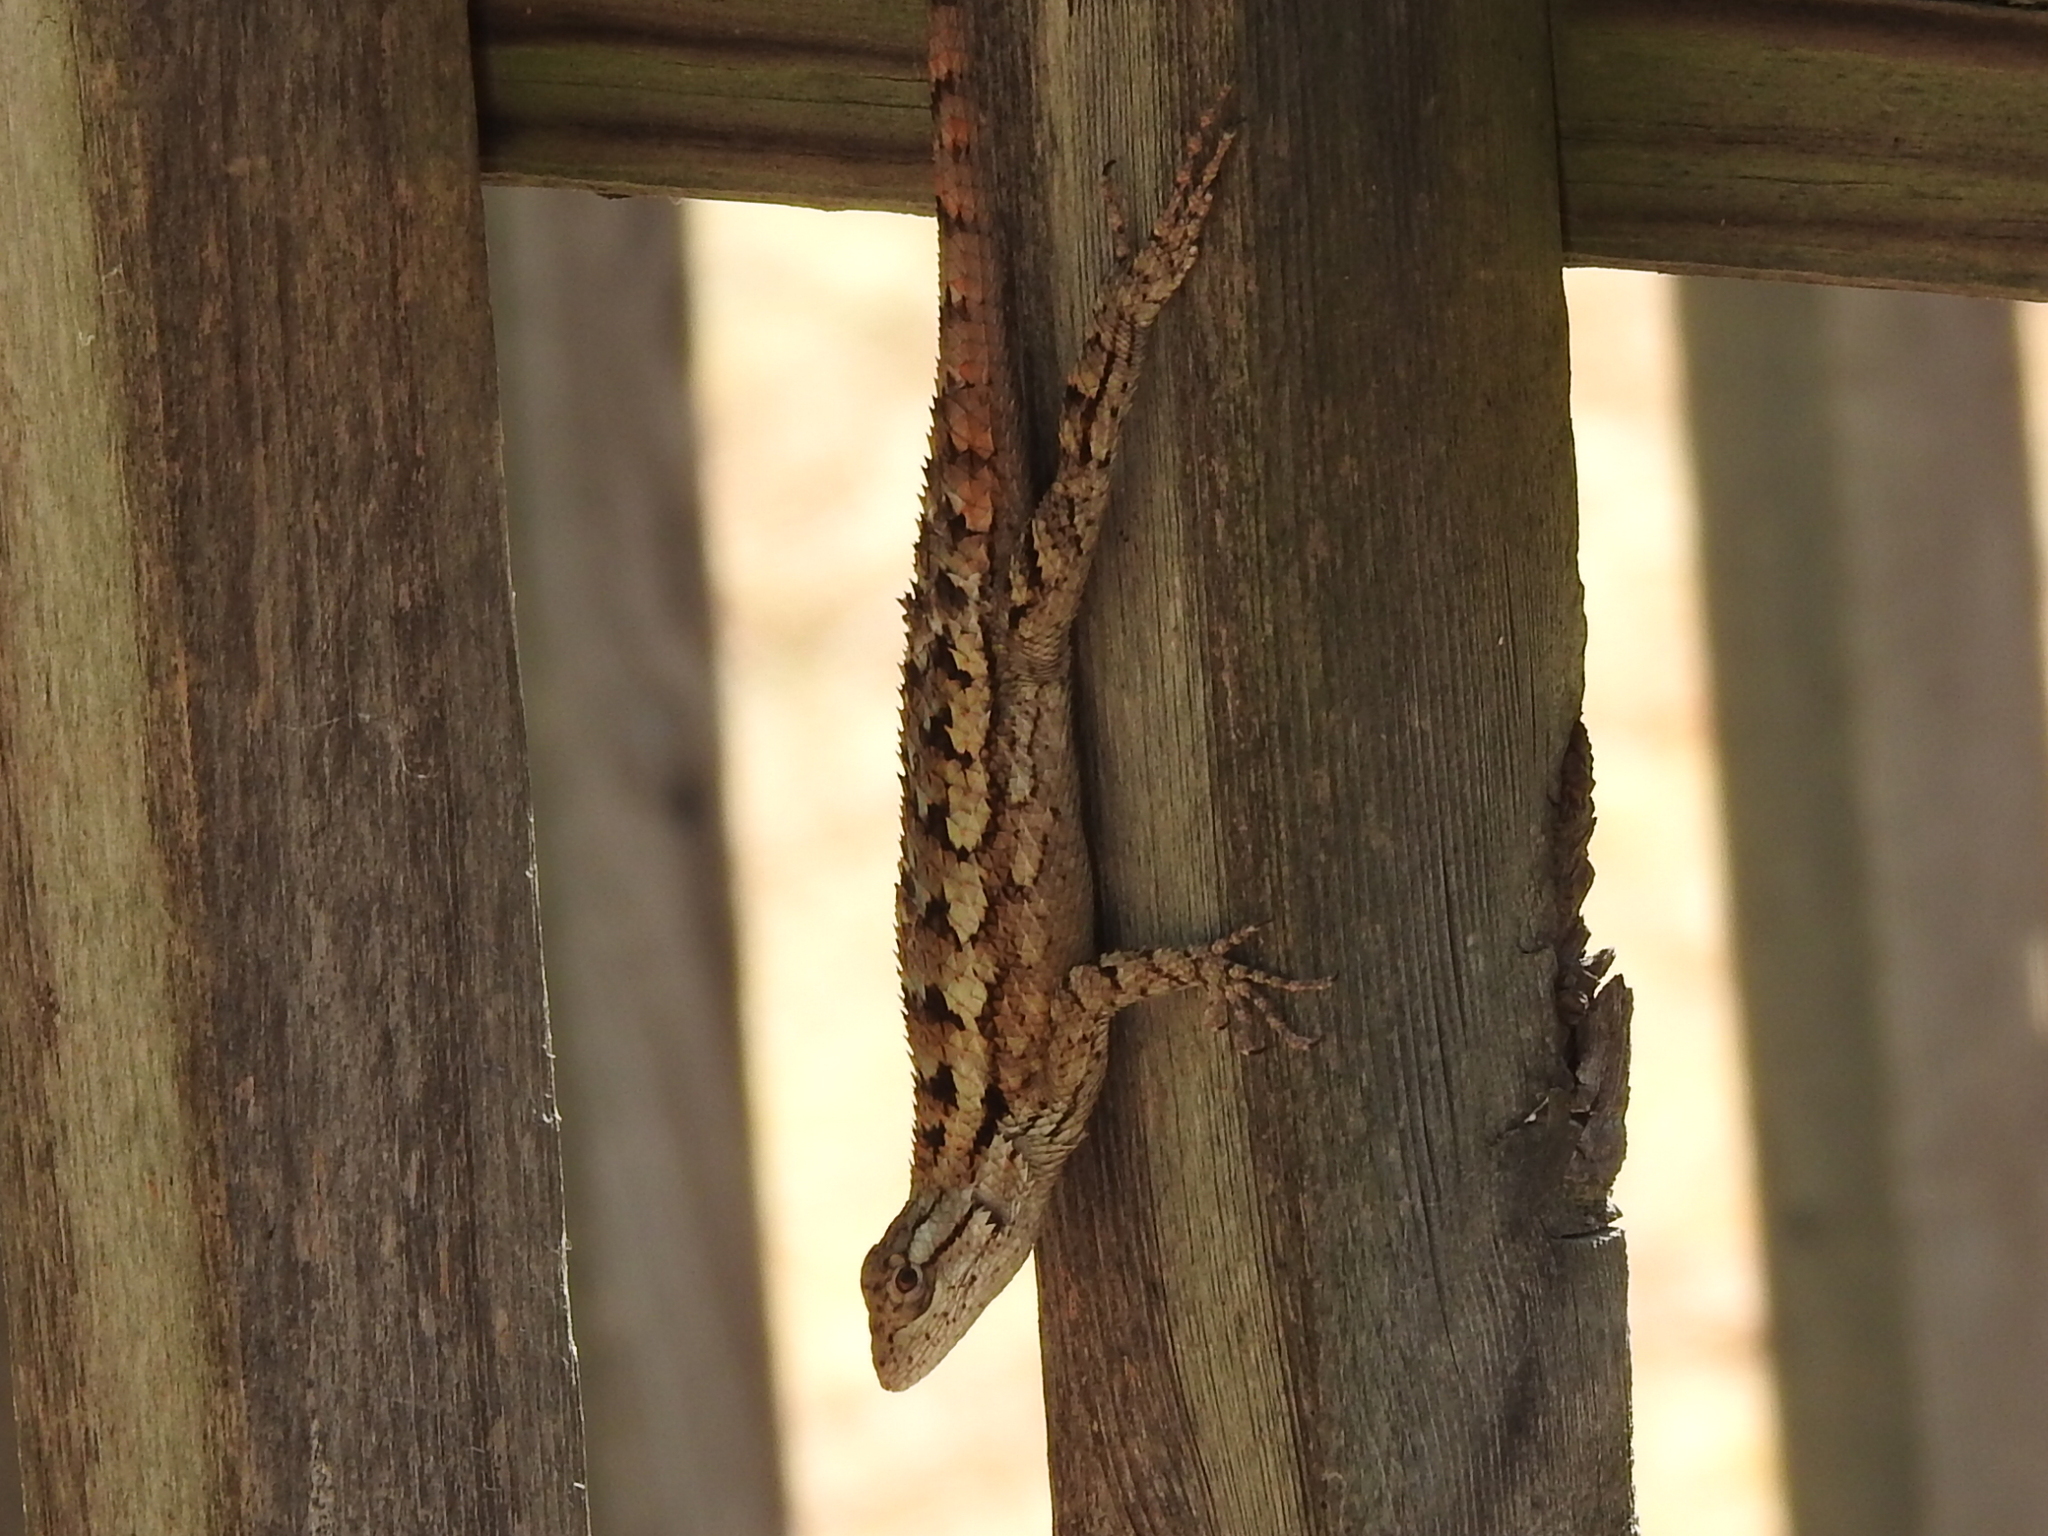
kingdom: Animalia
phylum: Chordata
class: Squamata
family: Phrynosomatidae
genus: Sceloporus
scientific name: Sceloporus olivaceus
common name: Texas spiny lizard
